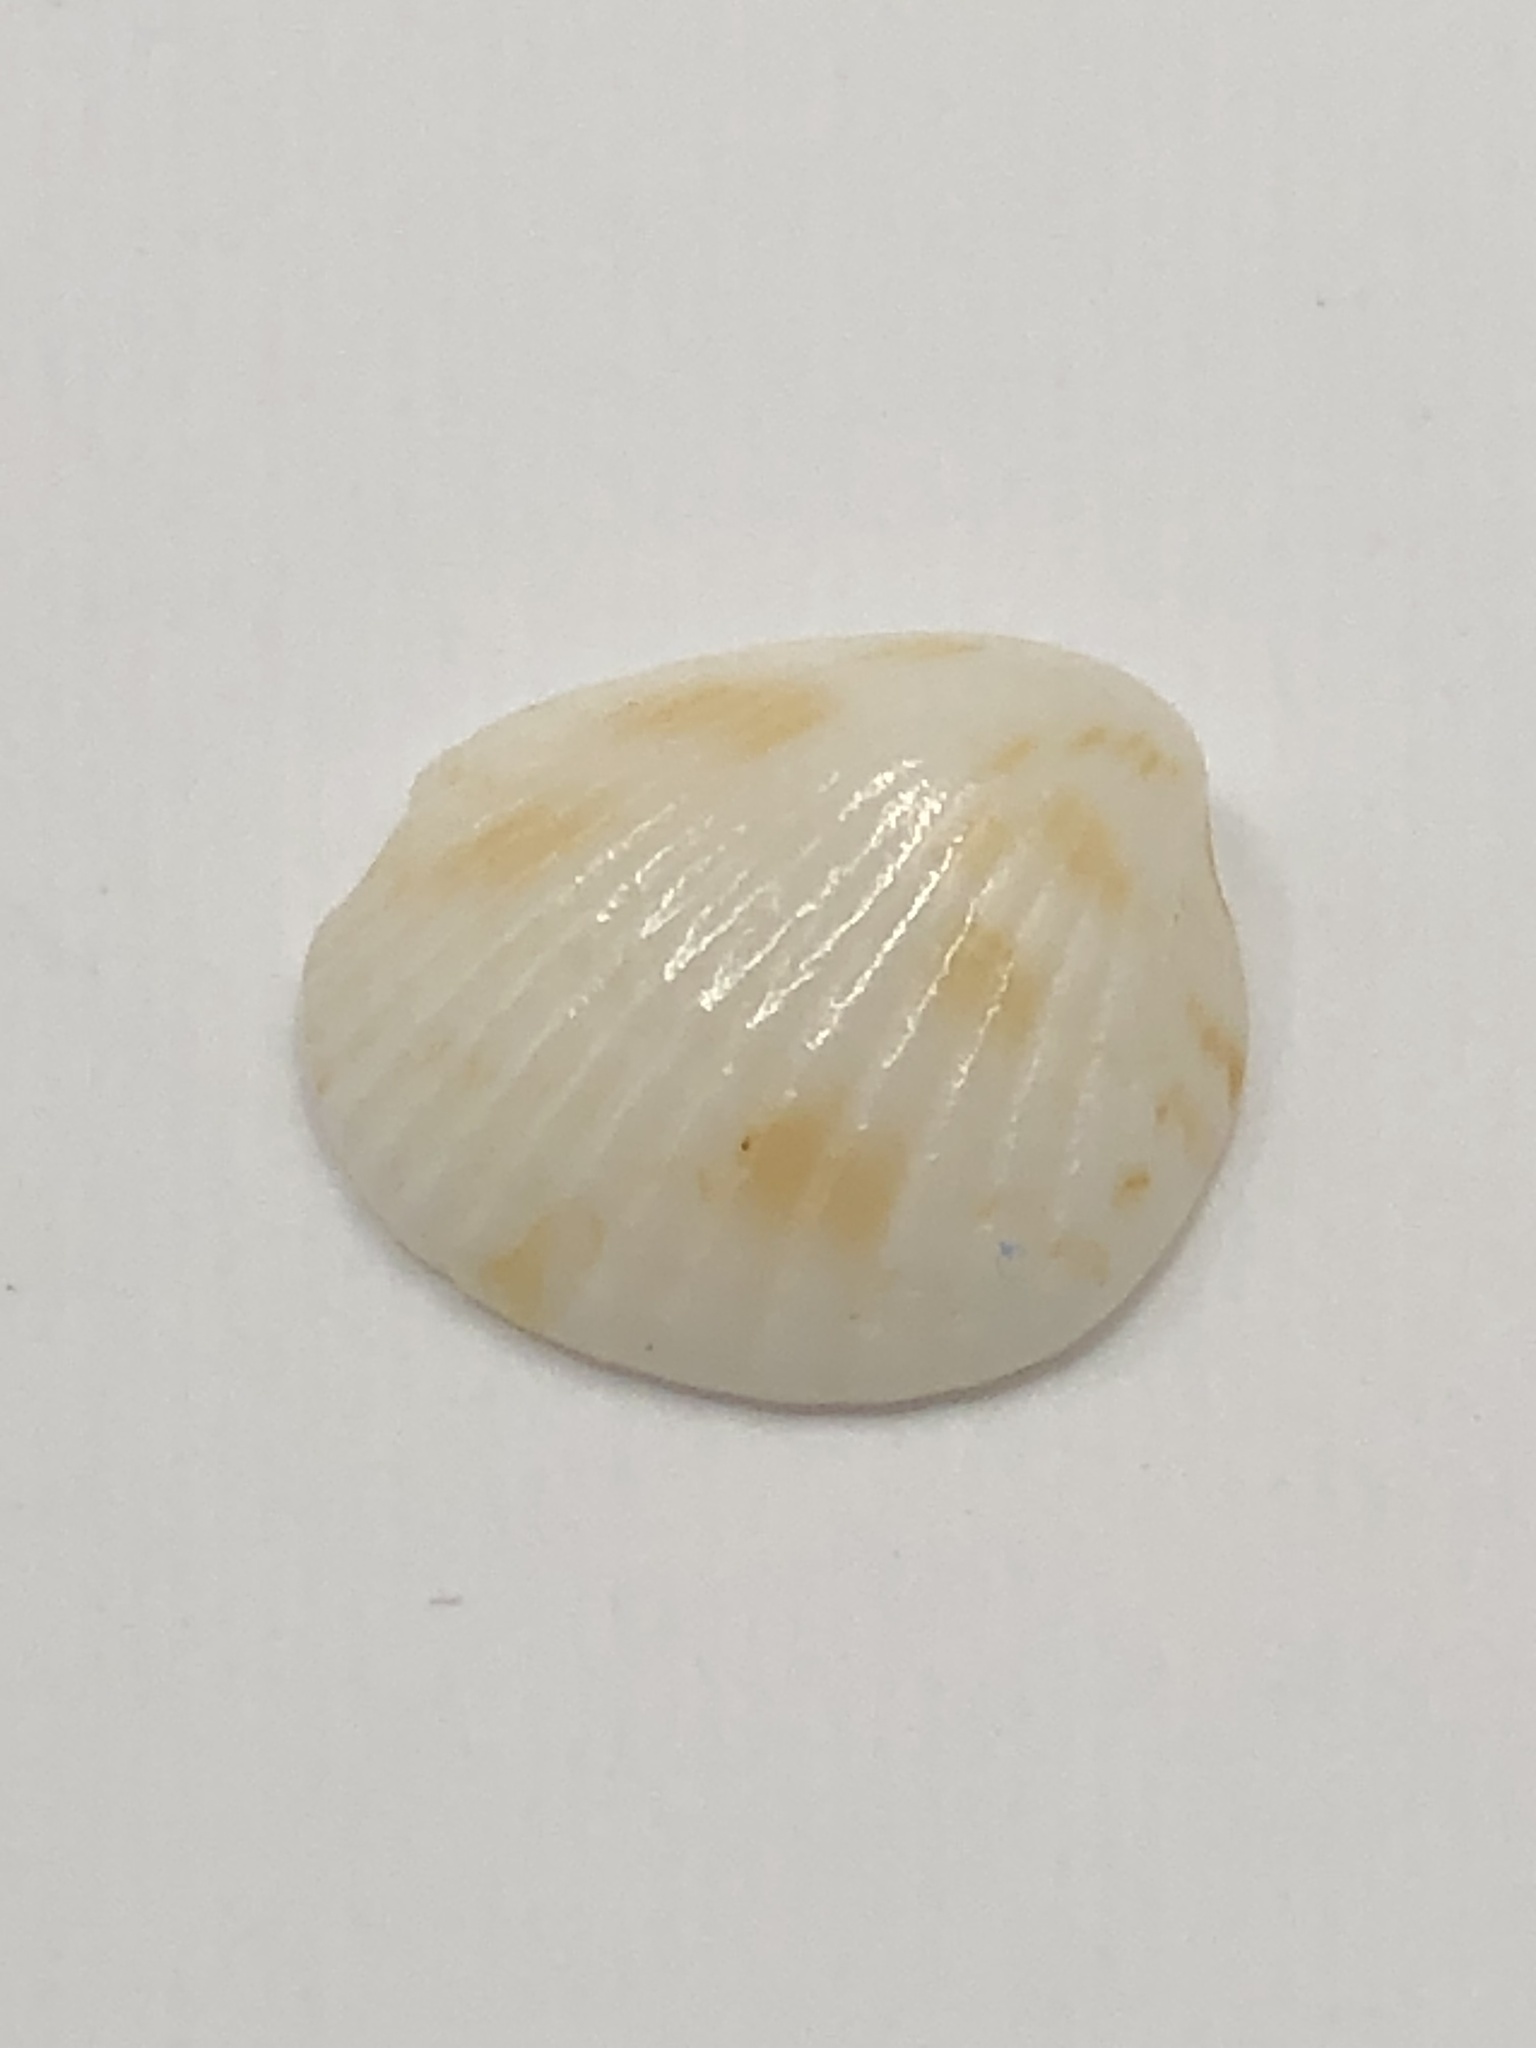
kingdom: Animalia
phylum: Mollusca
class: Bivalvia
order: Arcida
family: Glycymerididae
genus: Tucetona
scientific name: Tucetona pectinata
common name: Comb bittersweet
